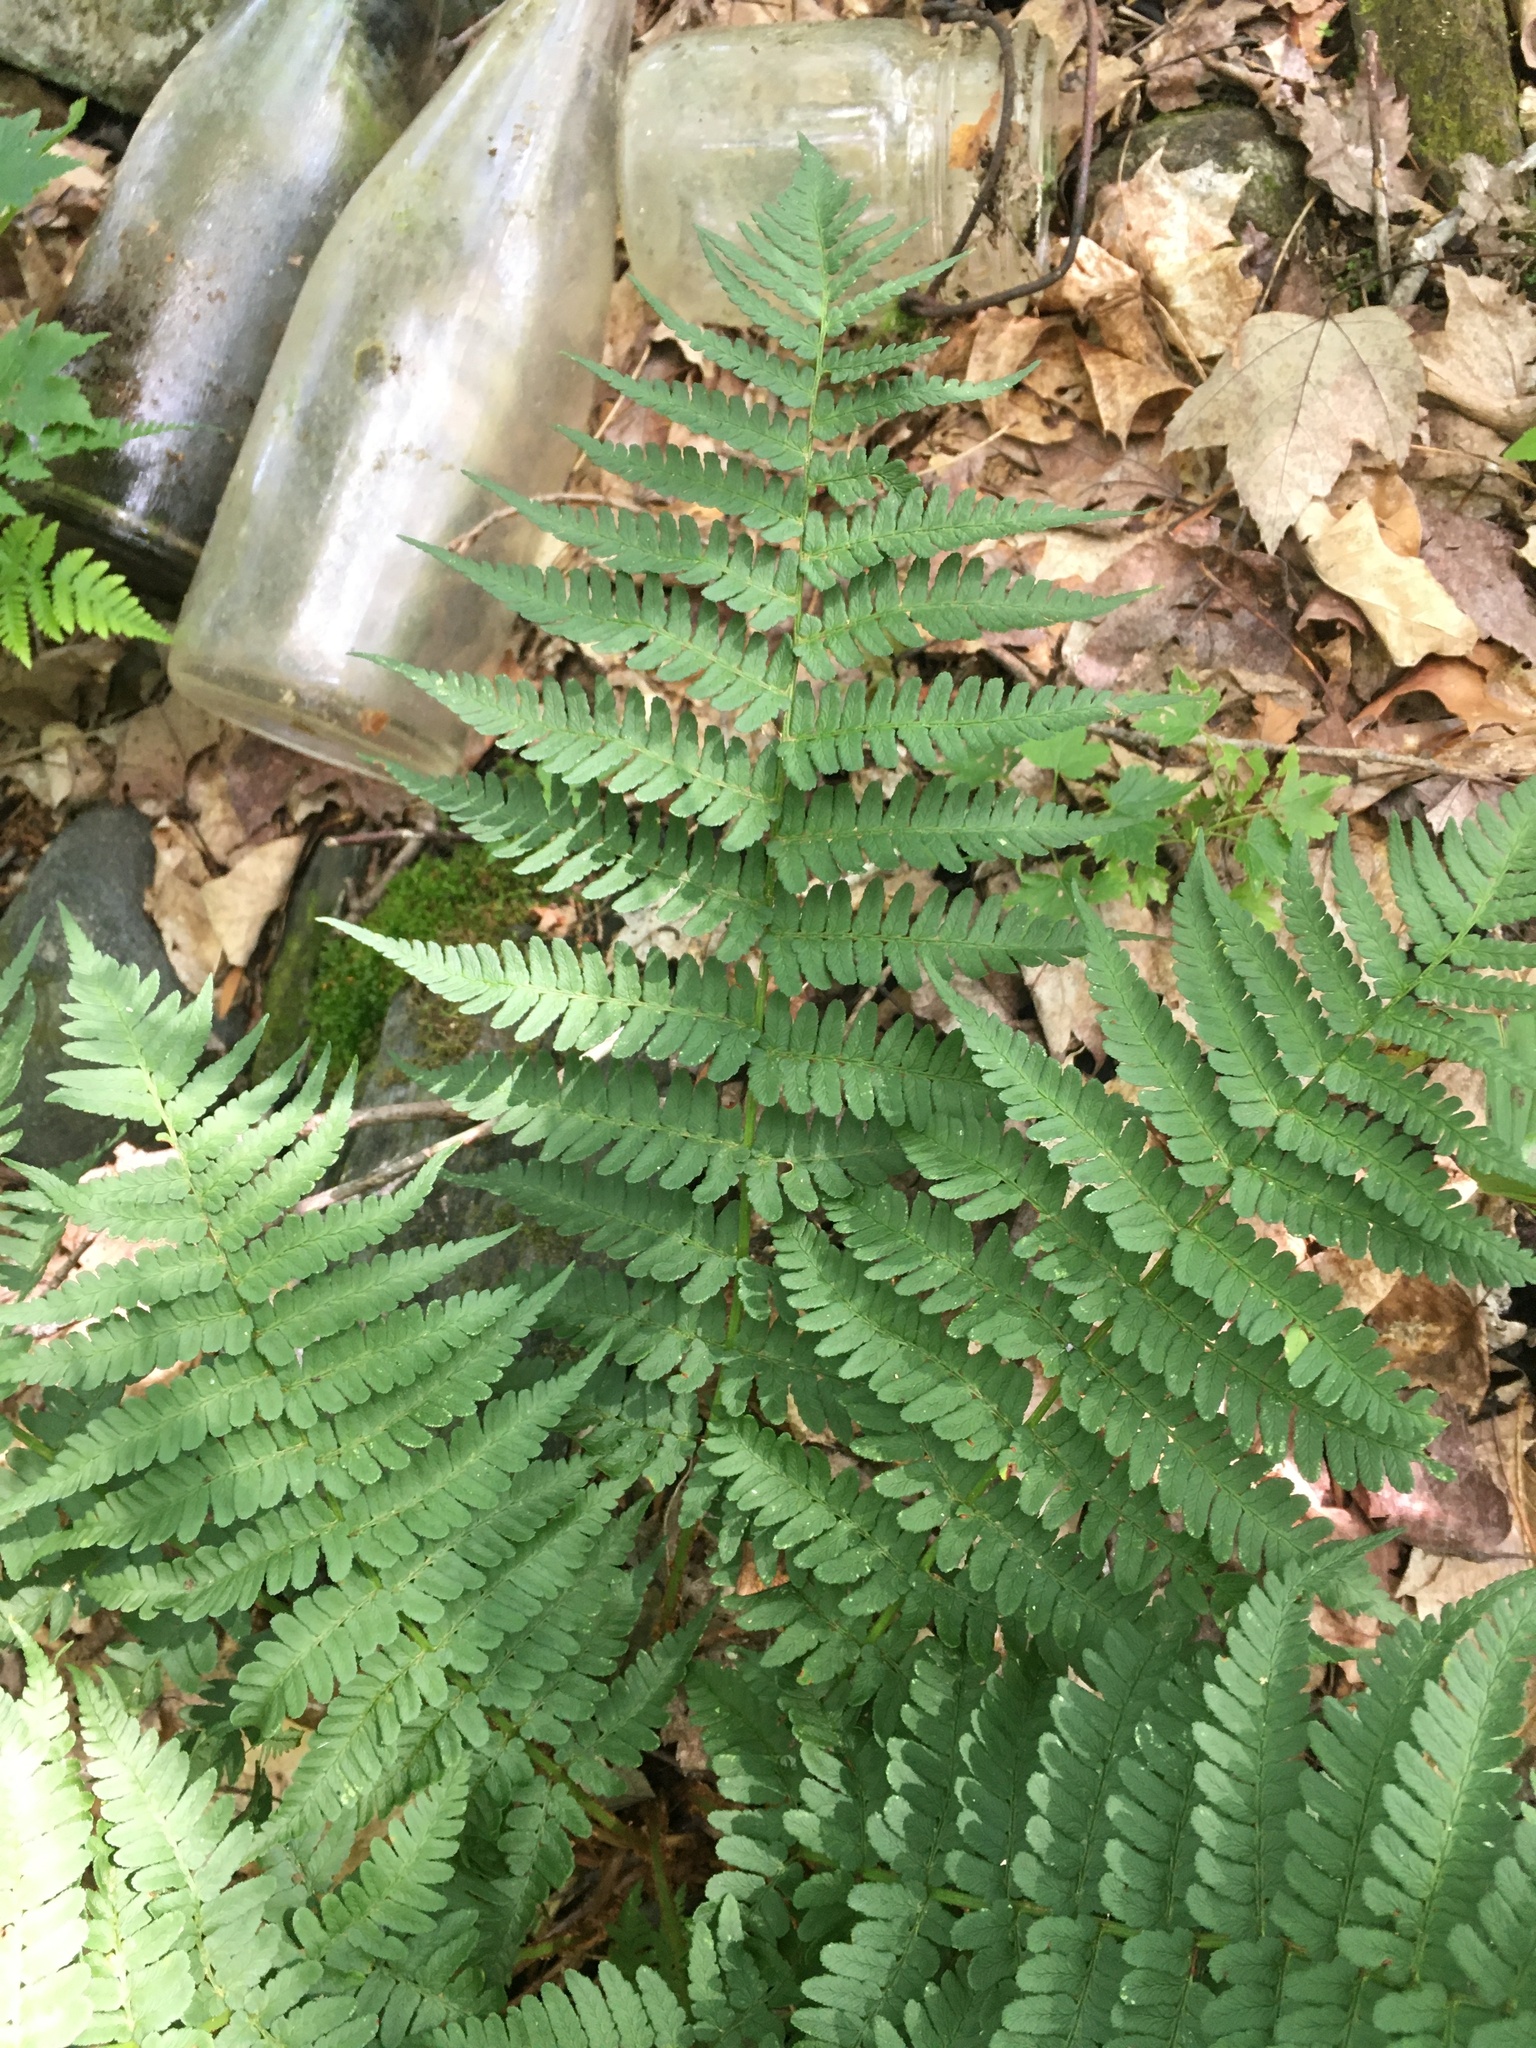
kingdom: Plantae
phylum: Tracheophyta
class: Polypodiopsida
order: Polypodiales
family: Dryopteridaceae
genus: Dryopteris
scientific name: Dryopteris marginalis
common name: Marginal wood fern
